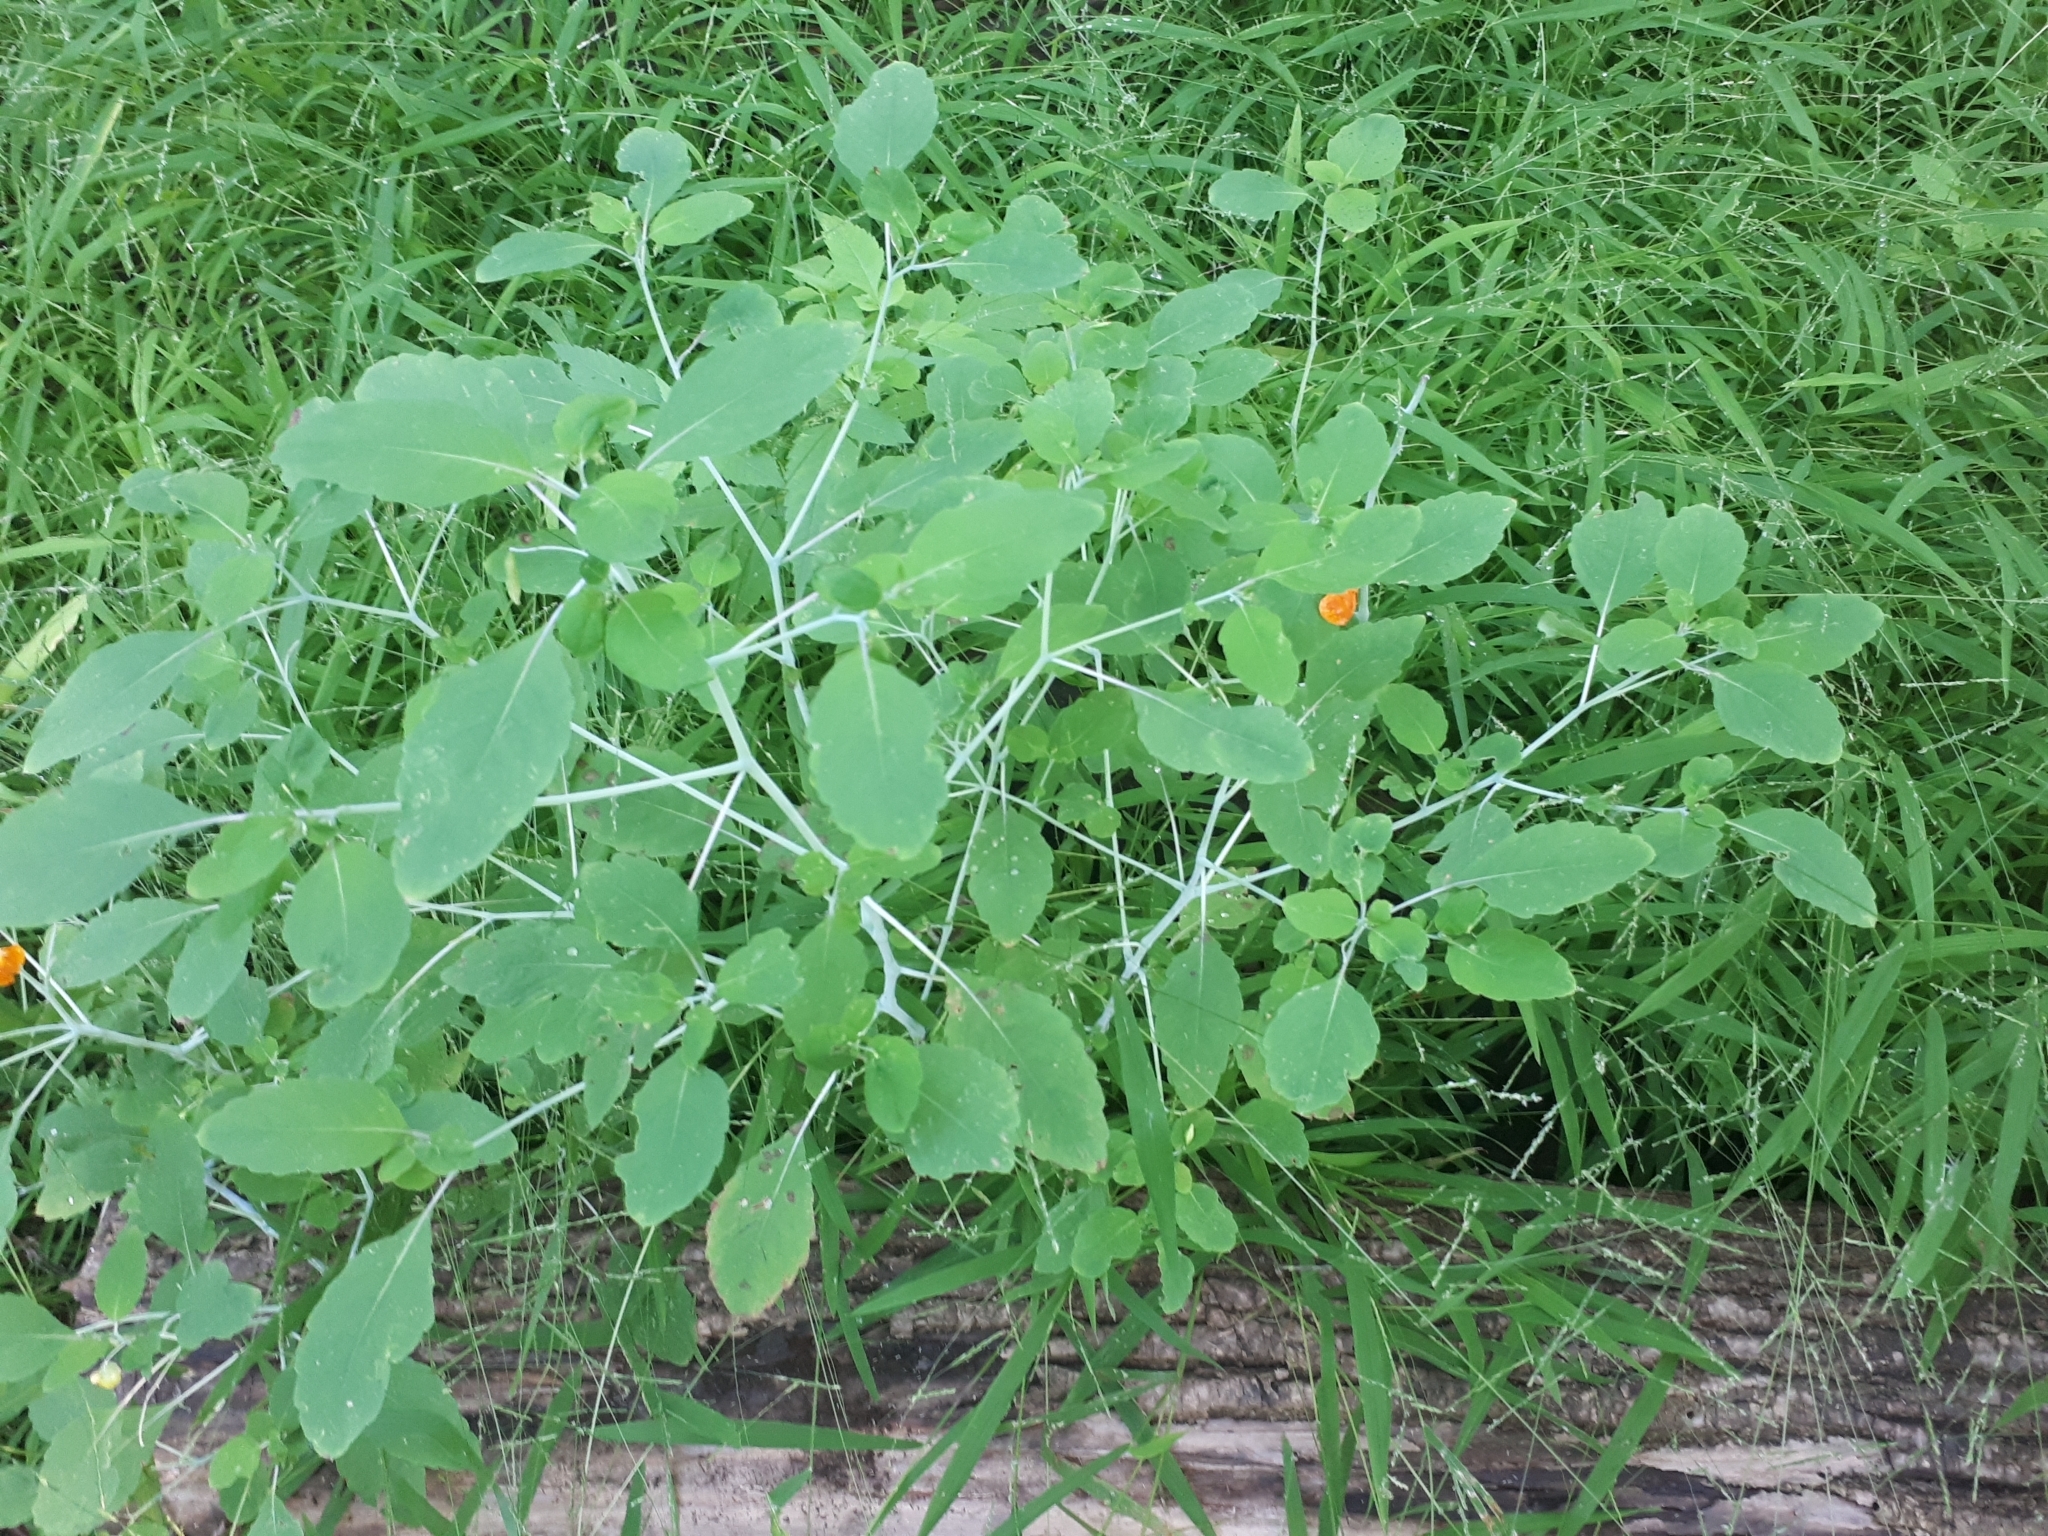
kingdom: Plantae
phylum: Tracheophyta
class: Magnoliopsida
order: Ericales
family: Balsaminaceae
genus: Impatiens
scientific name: Impatiens capensis
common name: Orange balsam
